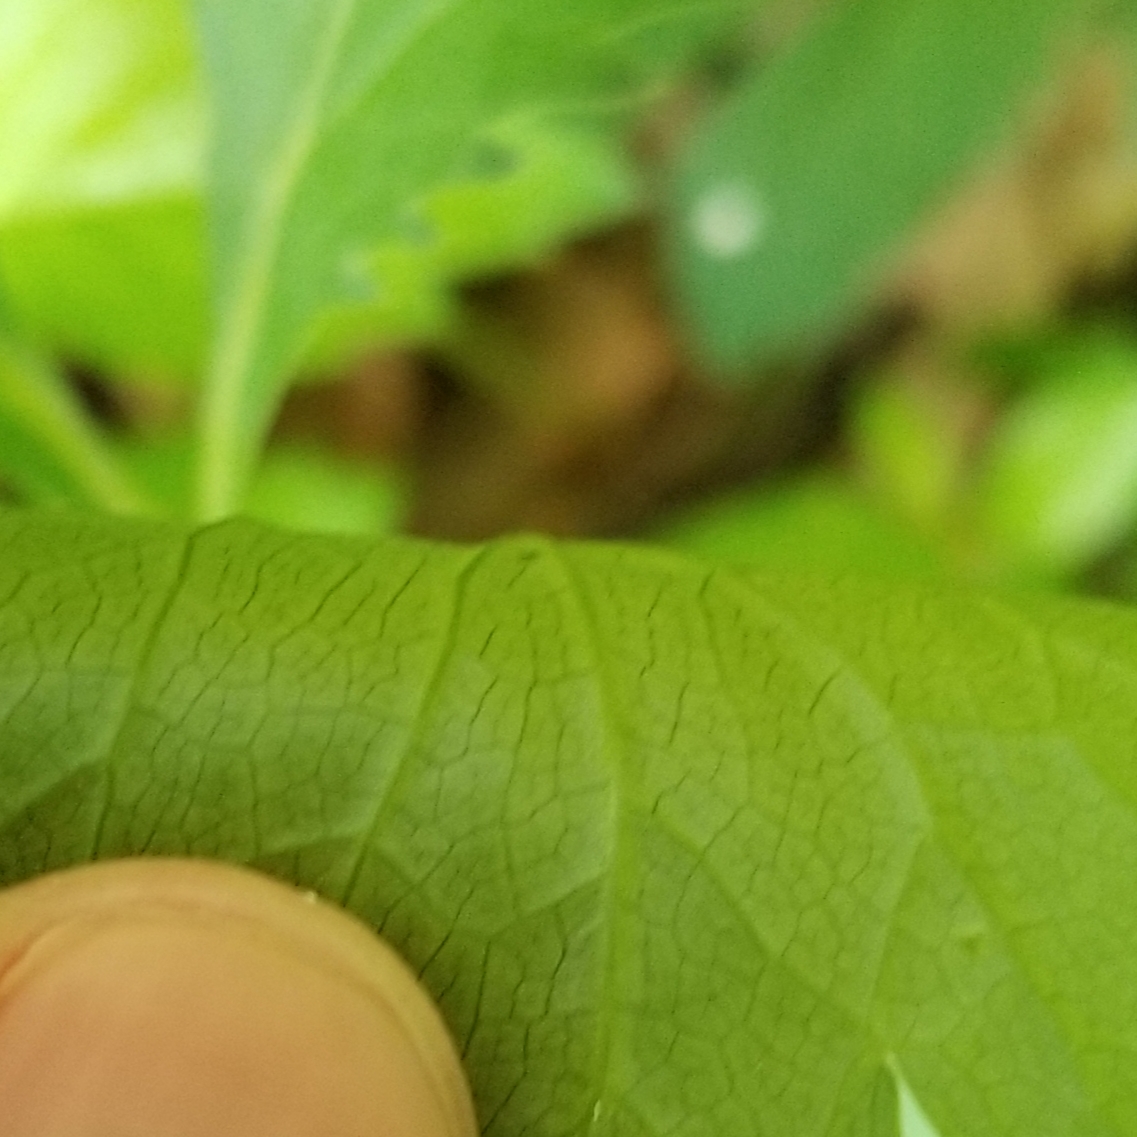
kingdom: Plantae
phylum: Tracheophyta
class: Magnoliopsida
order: Apiales
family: Apiaceae
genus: Sanicula
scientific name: Sanicula marilandica
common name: Black snakeroot
